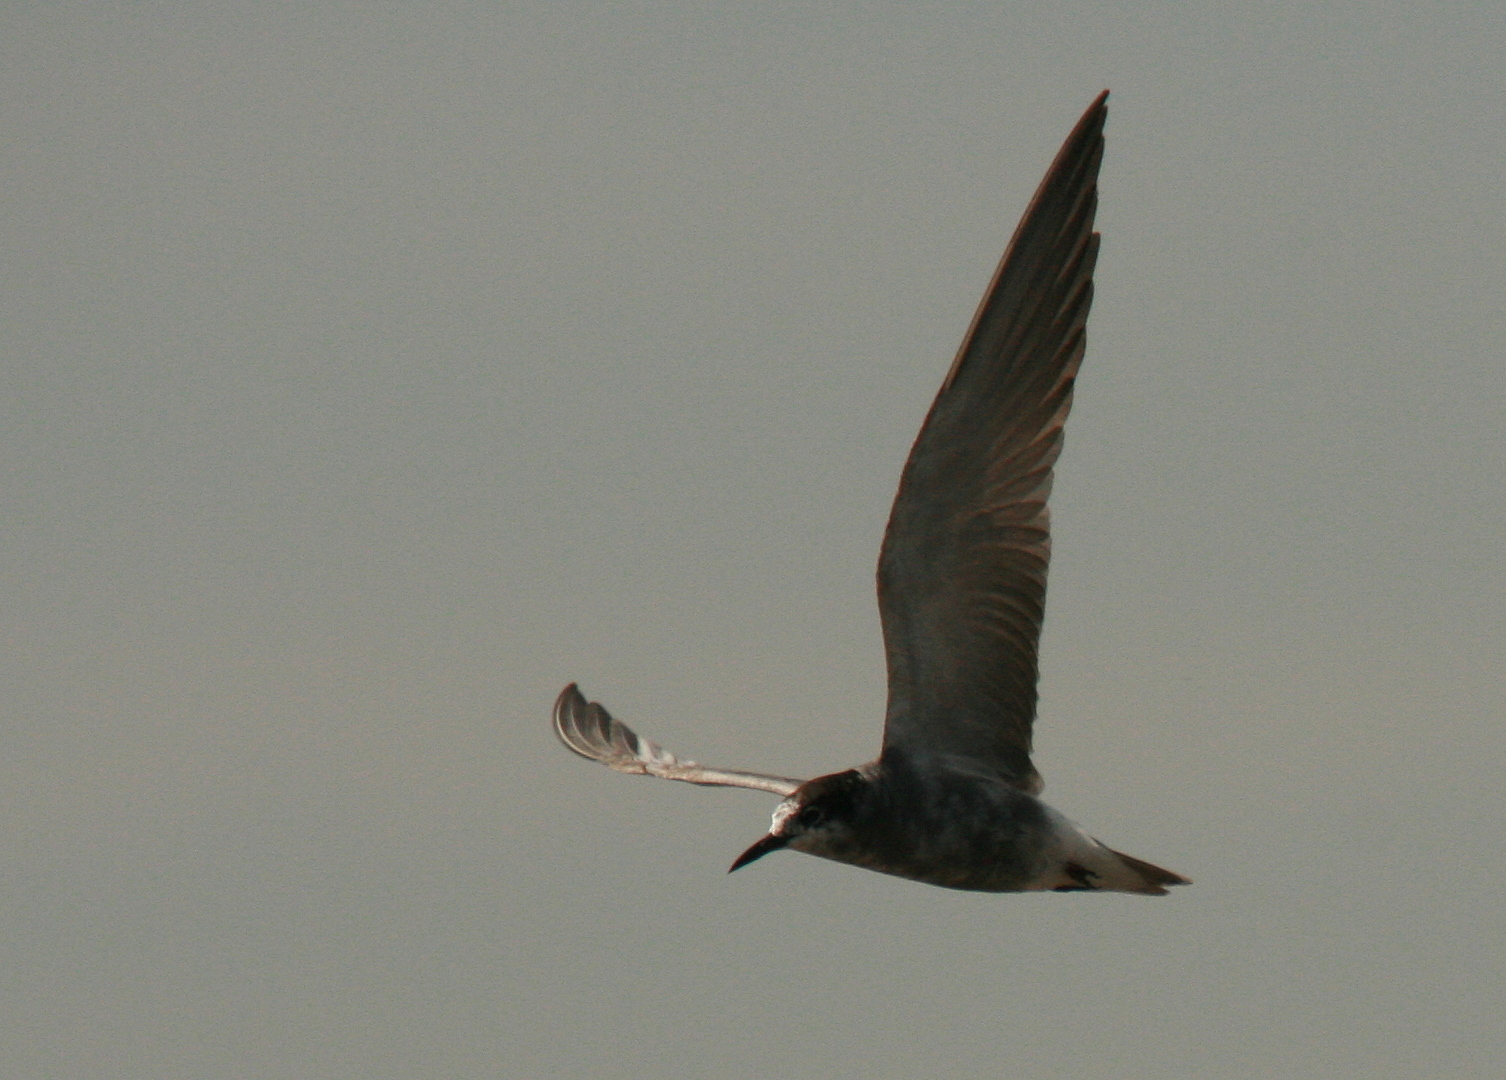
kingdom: Animalia
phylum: Chordata
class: Aves
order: Charadriiformes
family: Laridae
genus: Chlidonias
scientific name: Chlidonias niger
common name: Black tern
